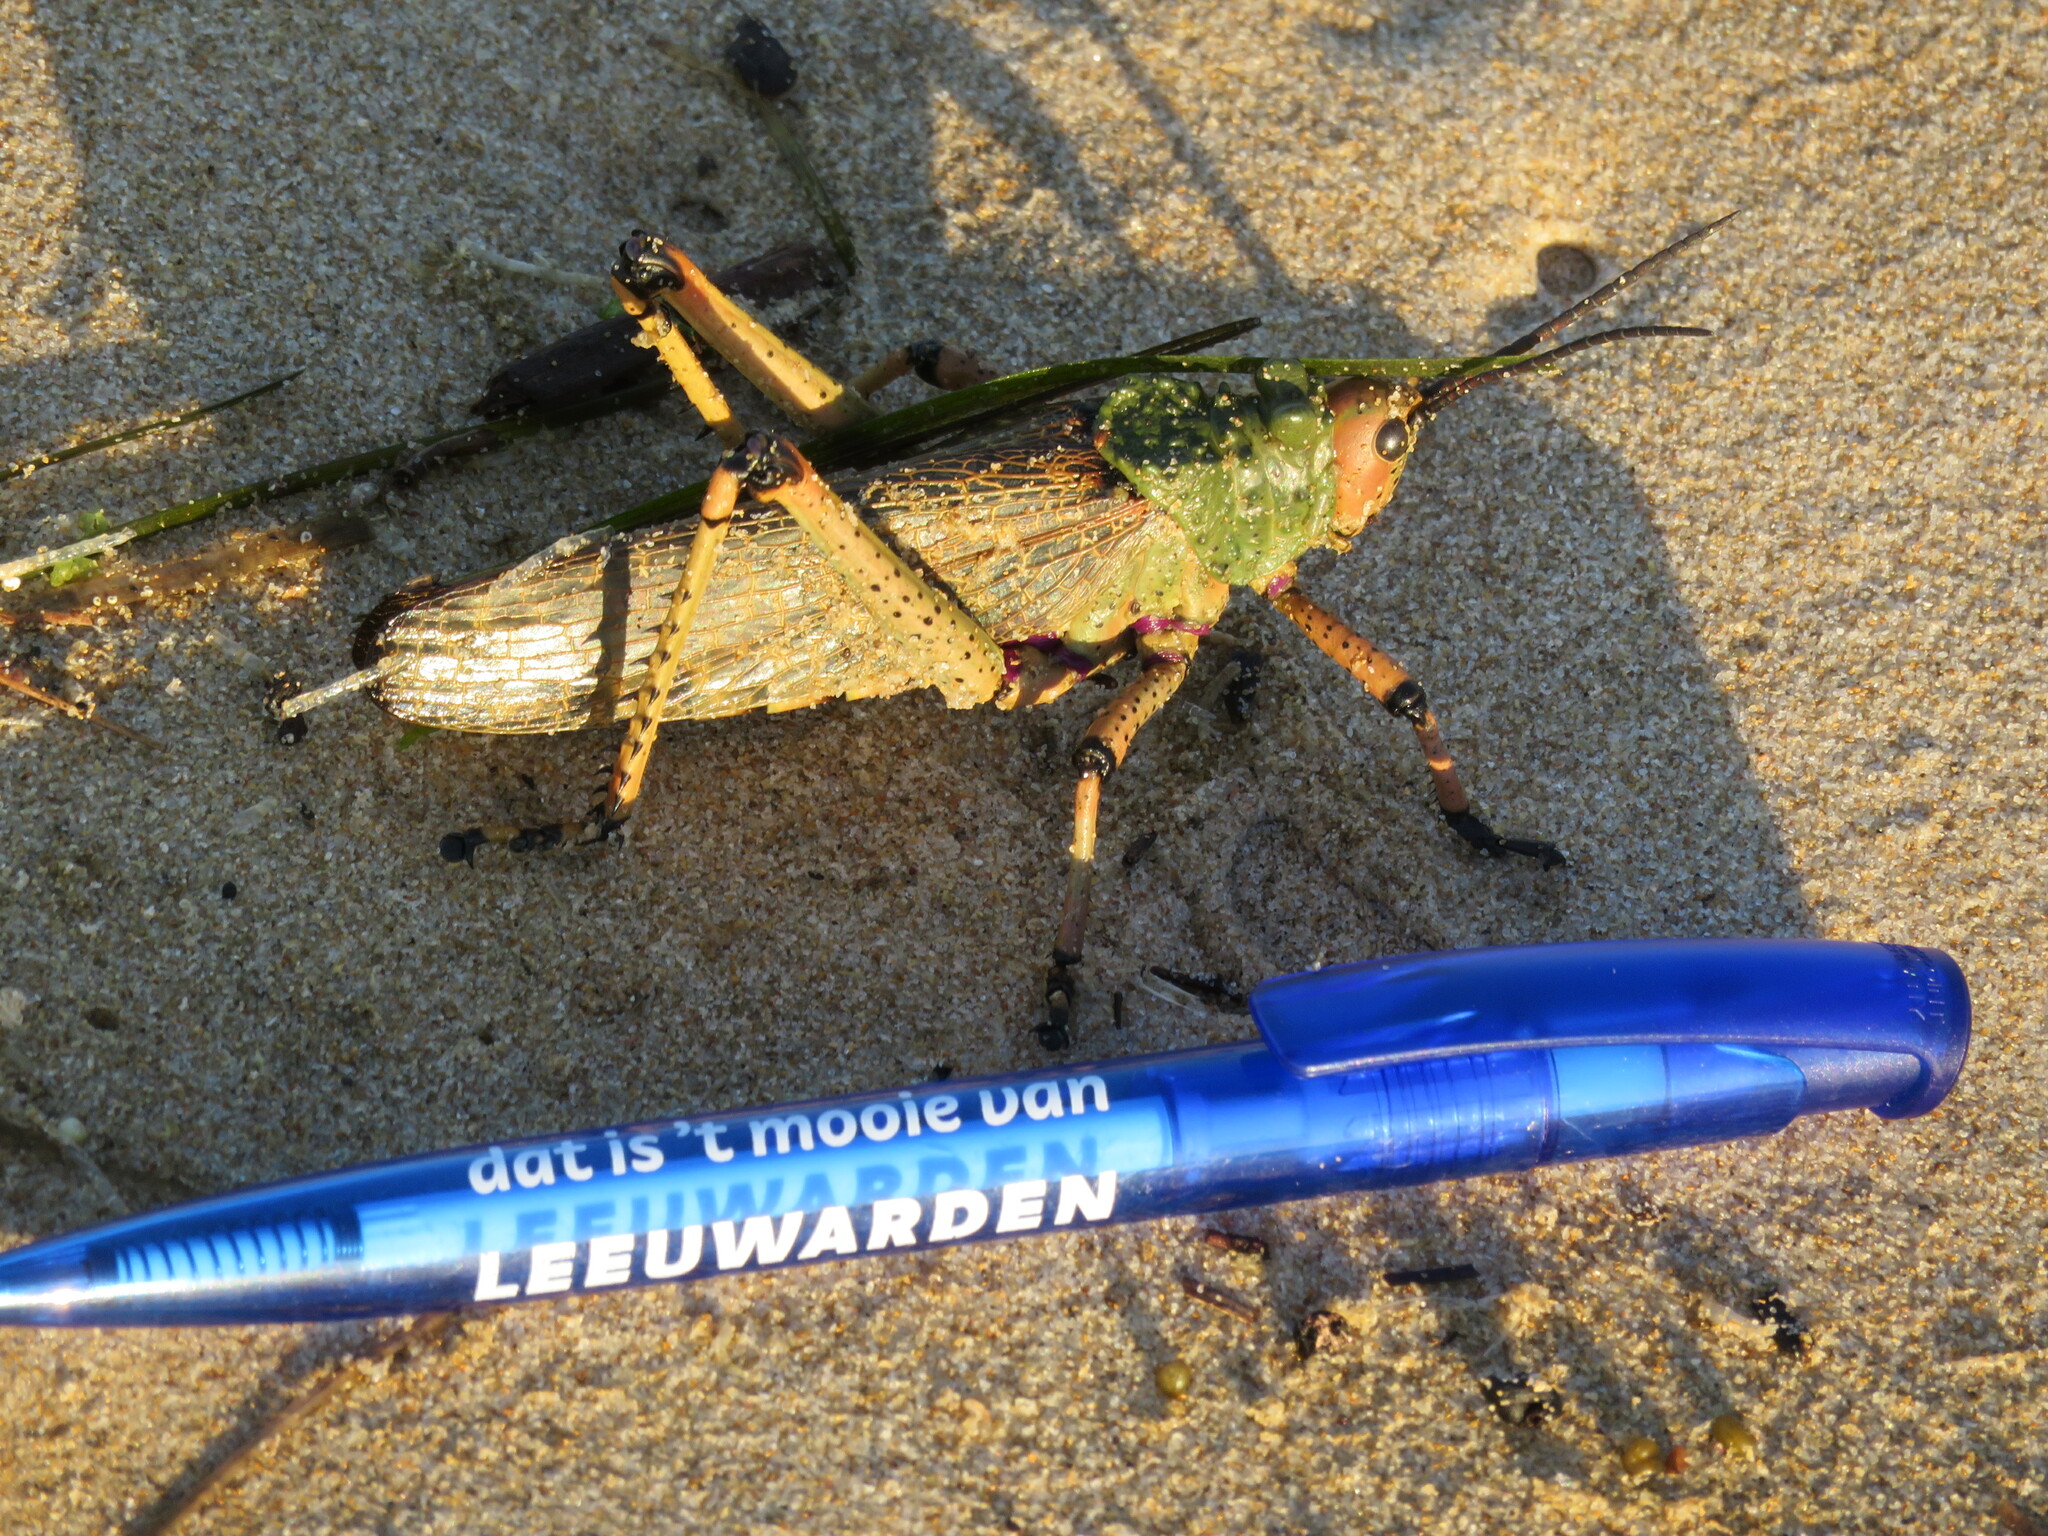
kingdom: Animalia
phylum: Arthropoda
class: Insecta
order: Orthoptera
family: Pyrgomorphidae
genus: Phymateus
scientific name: Phymateus leprosus
